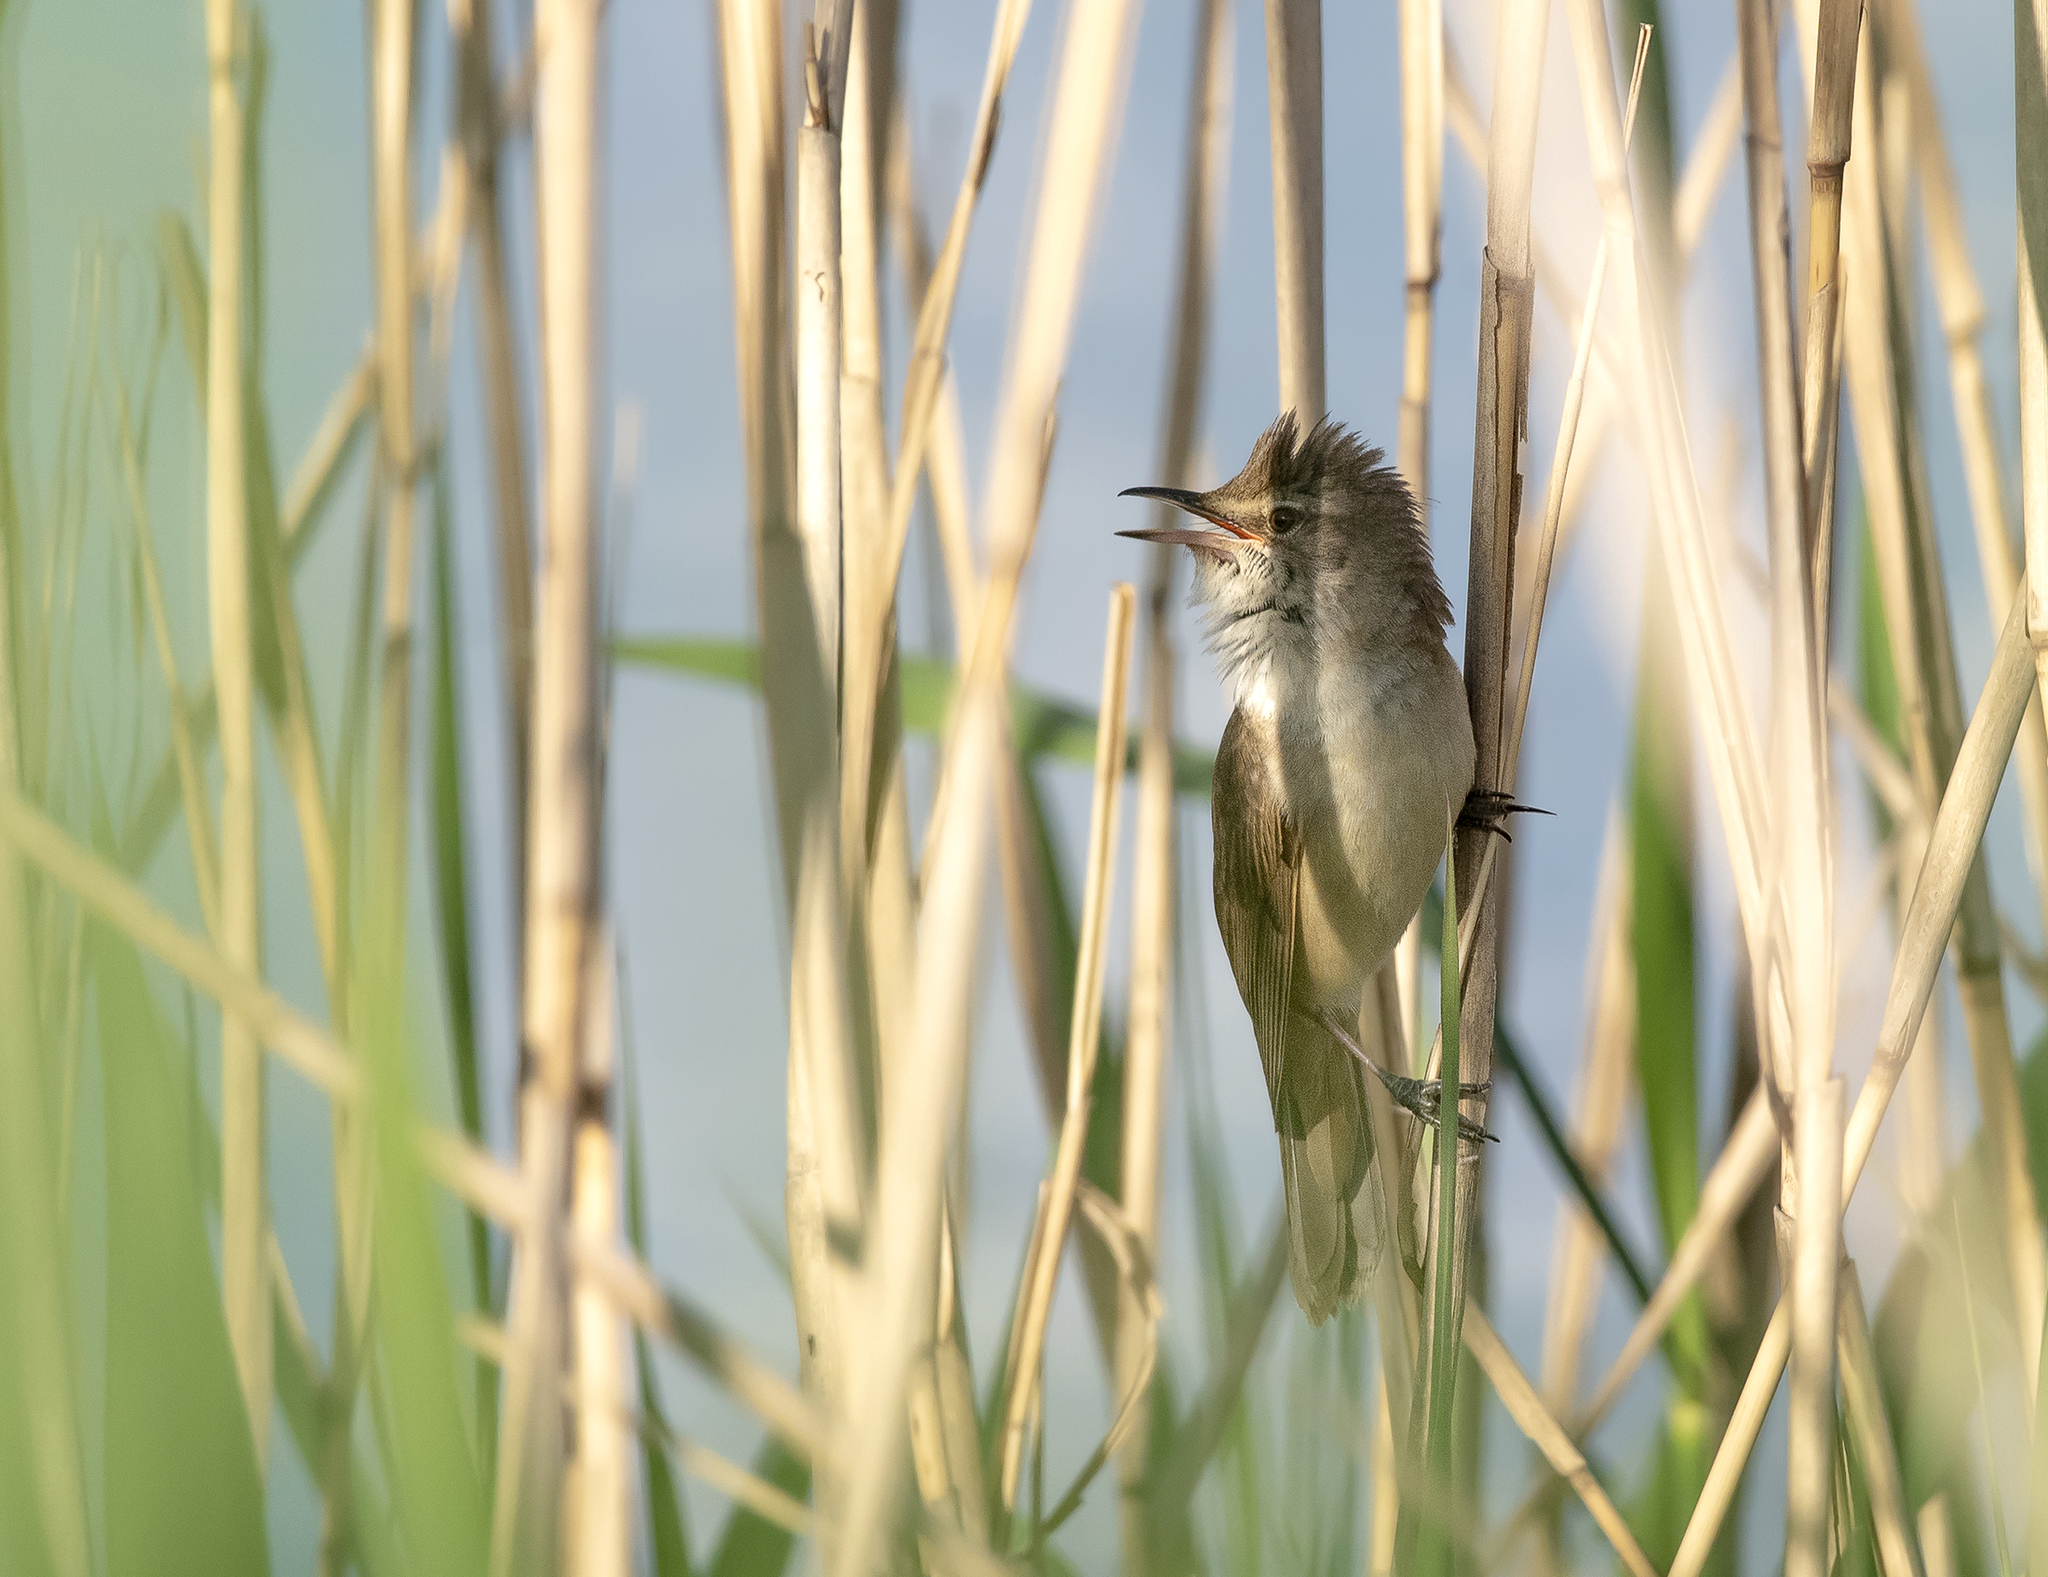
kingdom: Animalia
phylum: Chordata
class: Aves
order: Passeriformes
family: Acrocephalidae
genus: Acrocephalus
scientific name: Acrocephalus arundinaceus
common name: Great reed warbler
